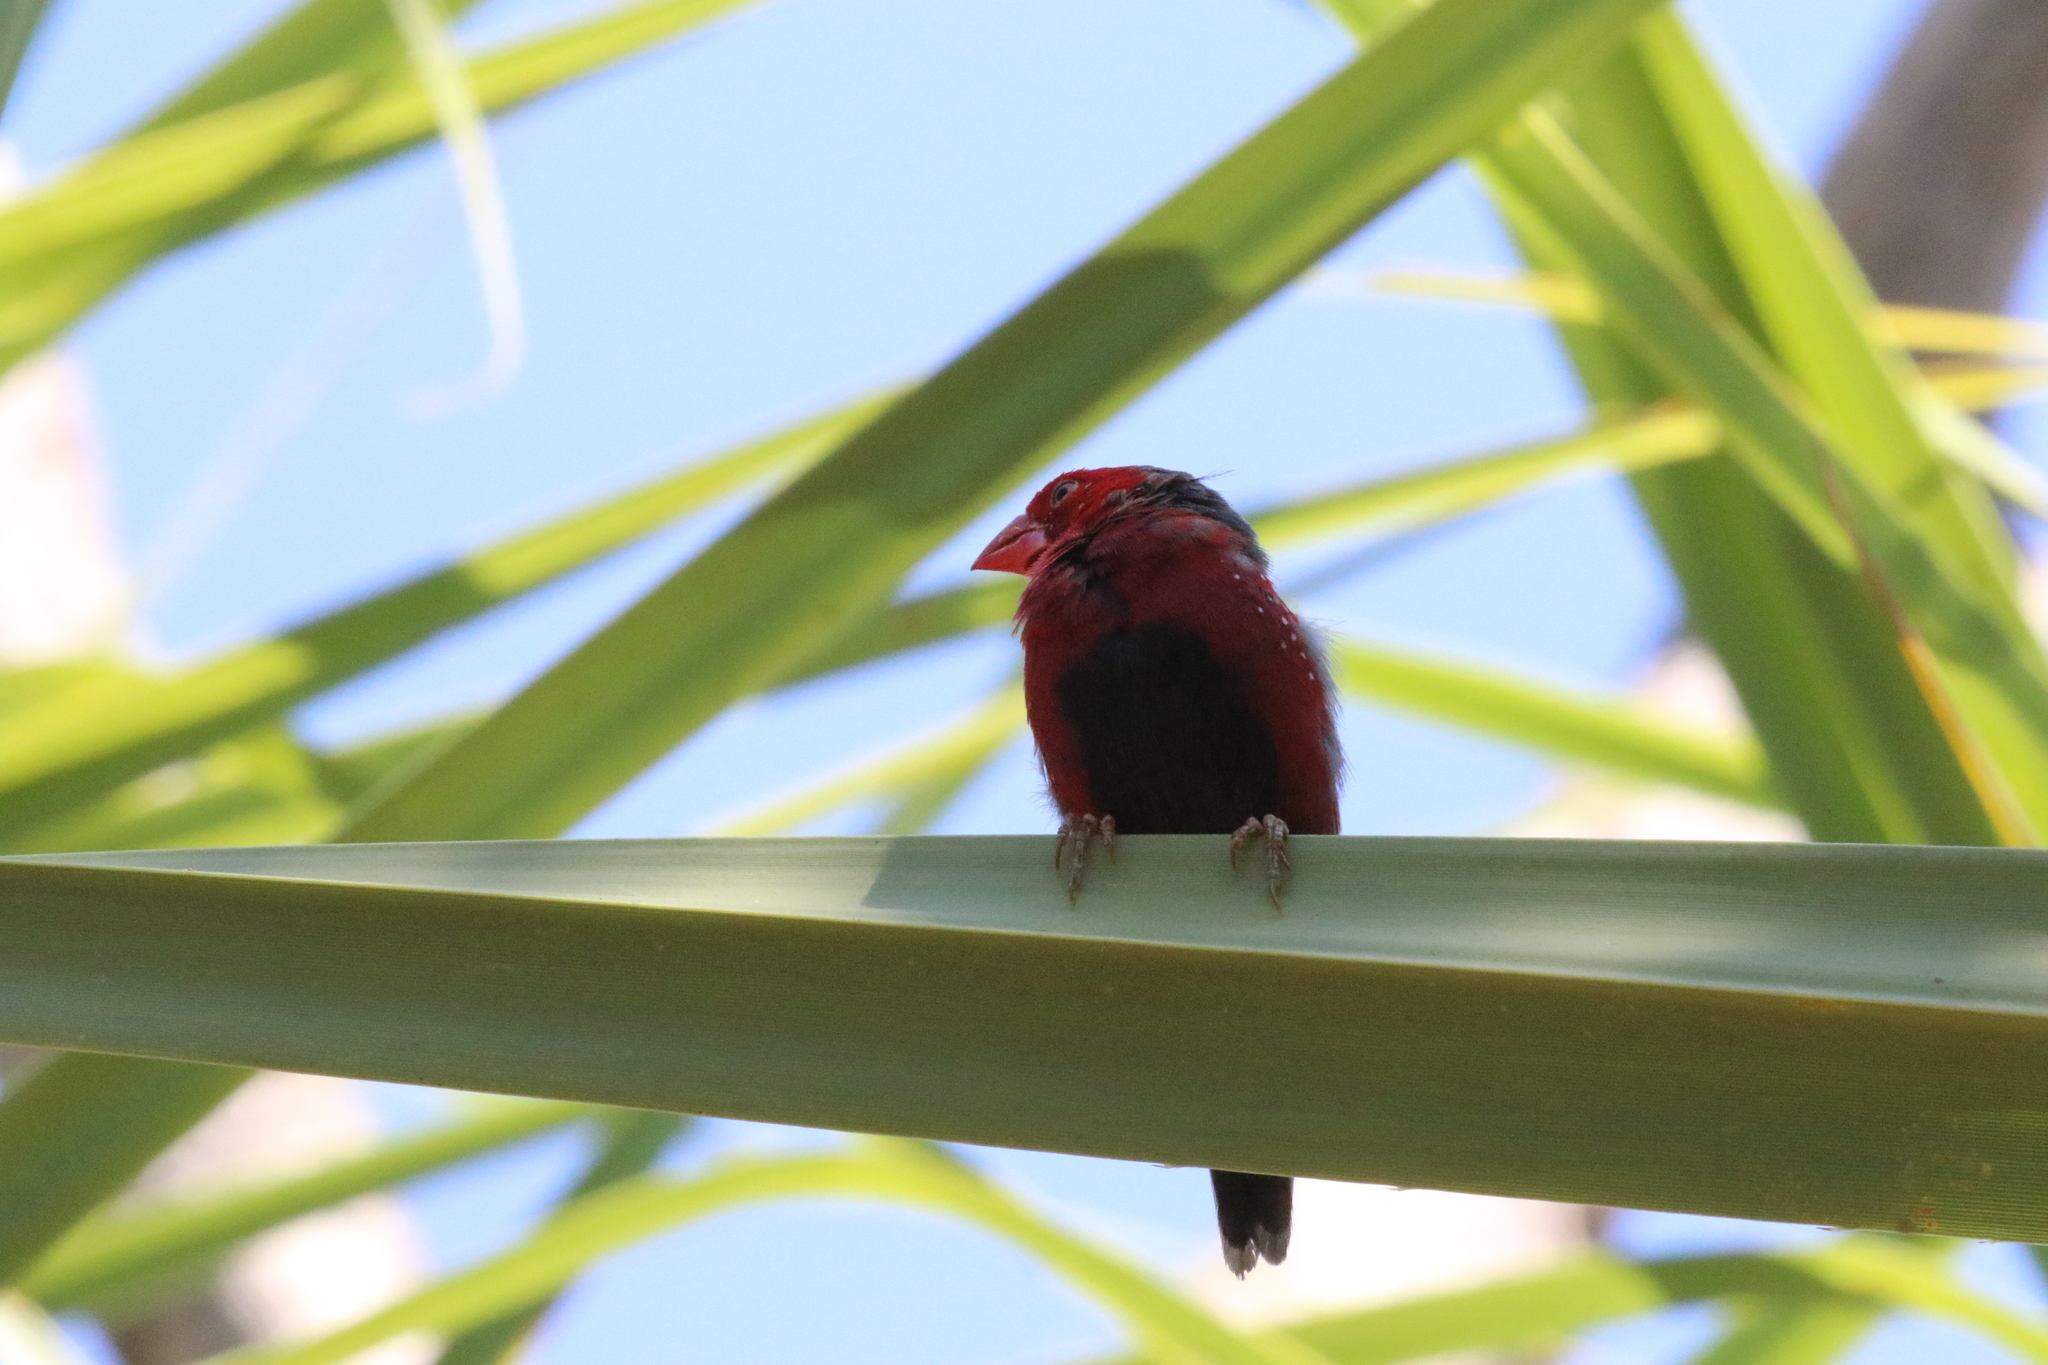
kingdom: Animalia
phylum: Chordata
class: Aves
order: Passeriformes
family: Estrildidae
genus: Neochmia
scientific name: Neochmia phaeton
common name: Crimson finch
